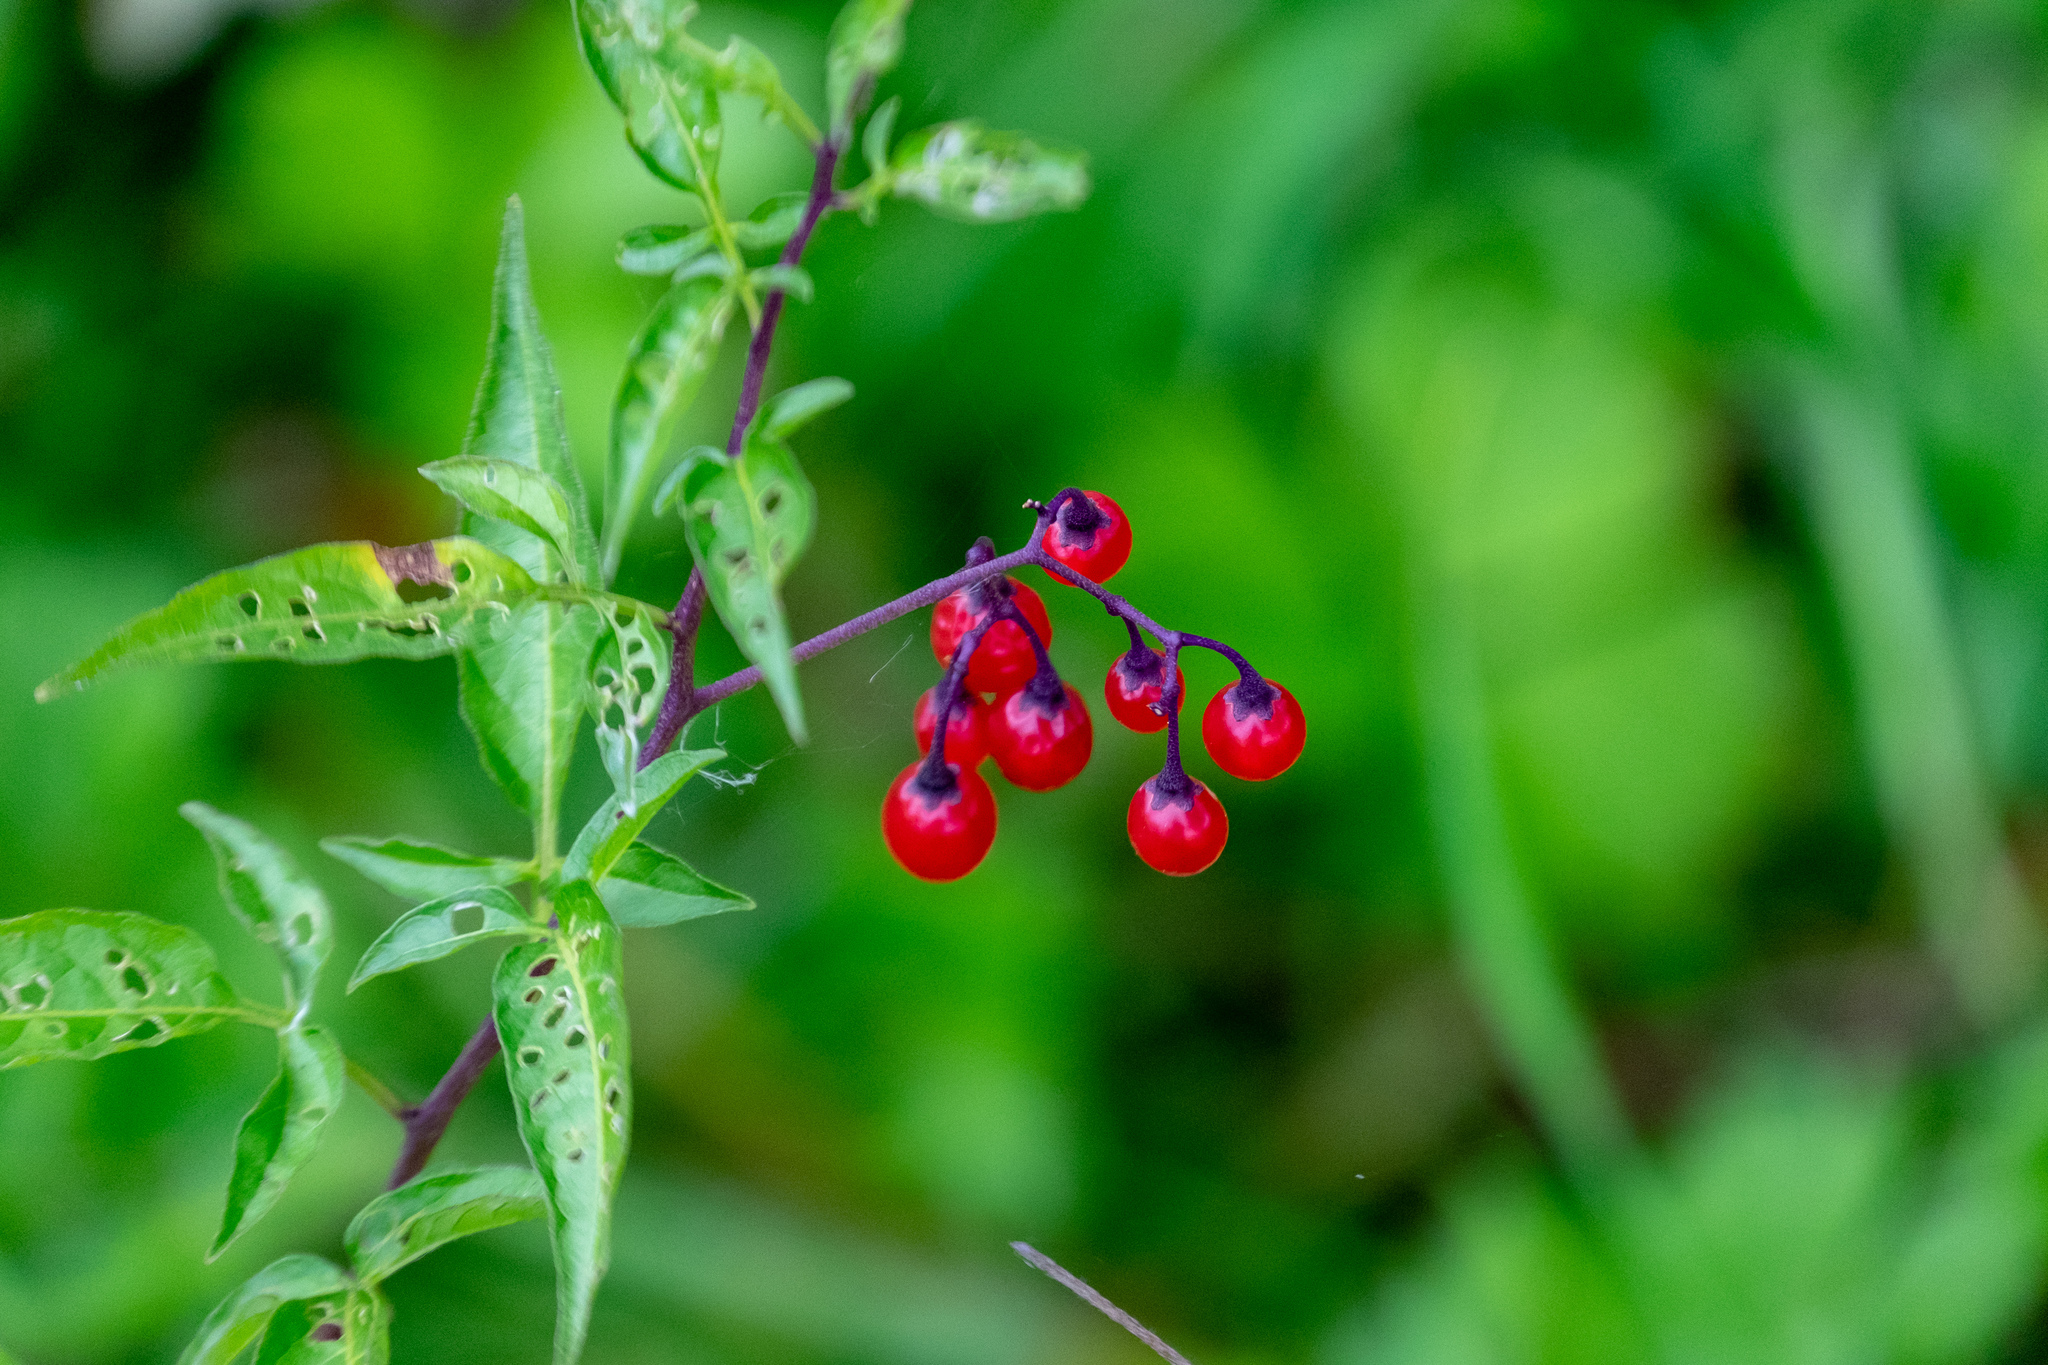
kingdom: Plantae
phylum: Tracheophyta
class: Magnoliopsida
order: Solanales
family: Solanaceae
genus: Solanum
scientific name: Solanum dulcamara
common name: Climbing nightshade
